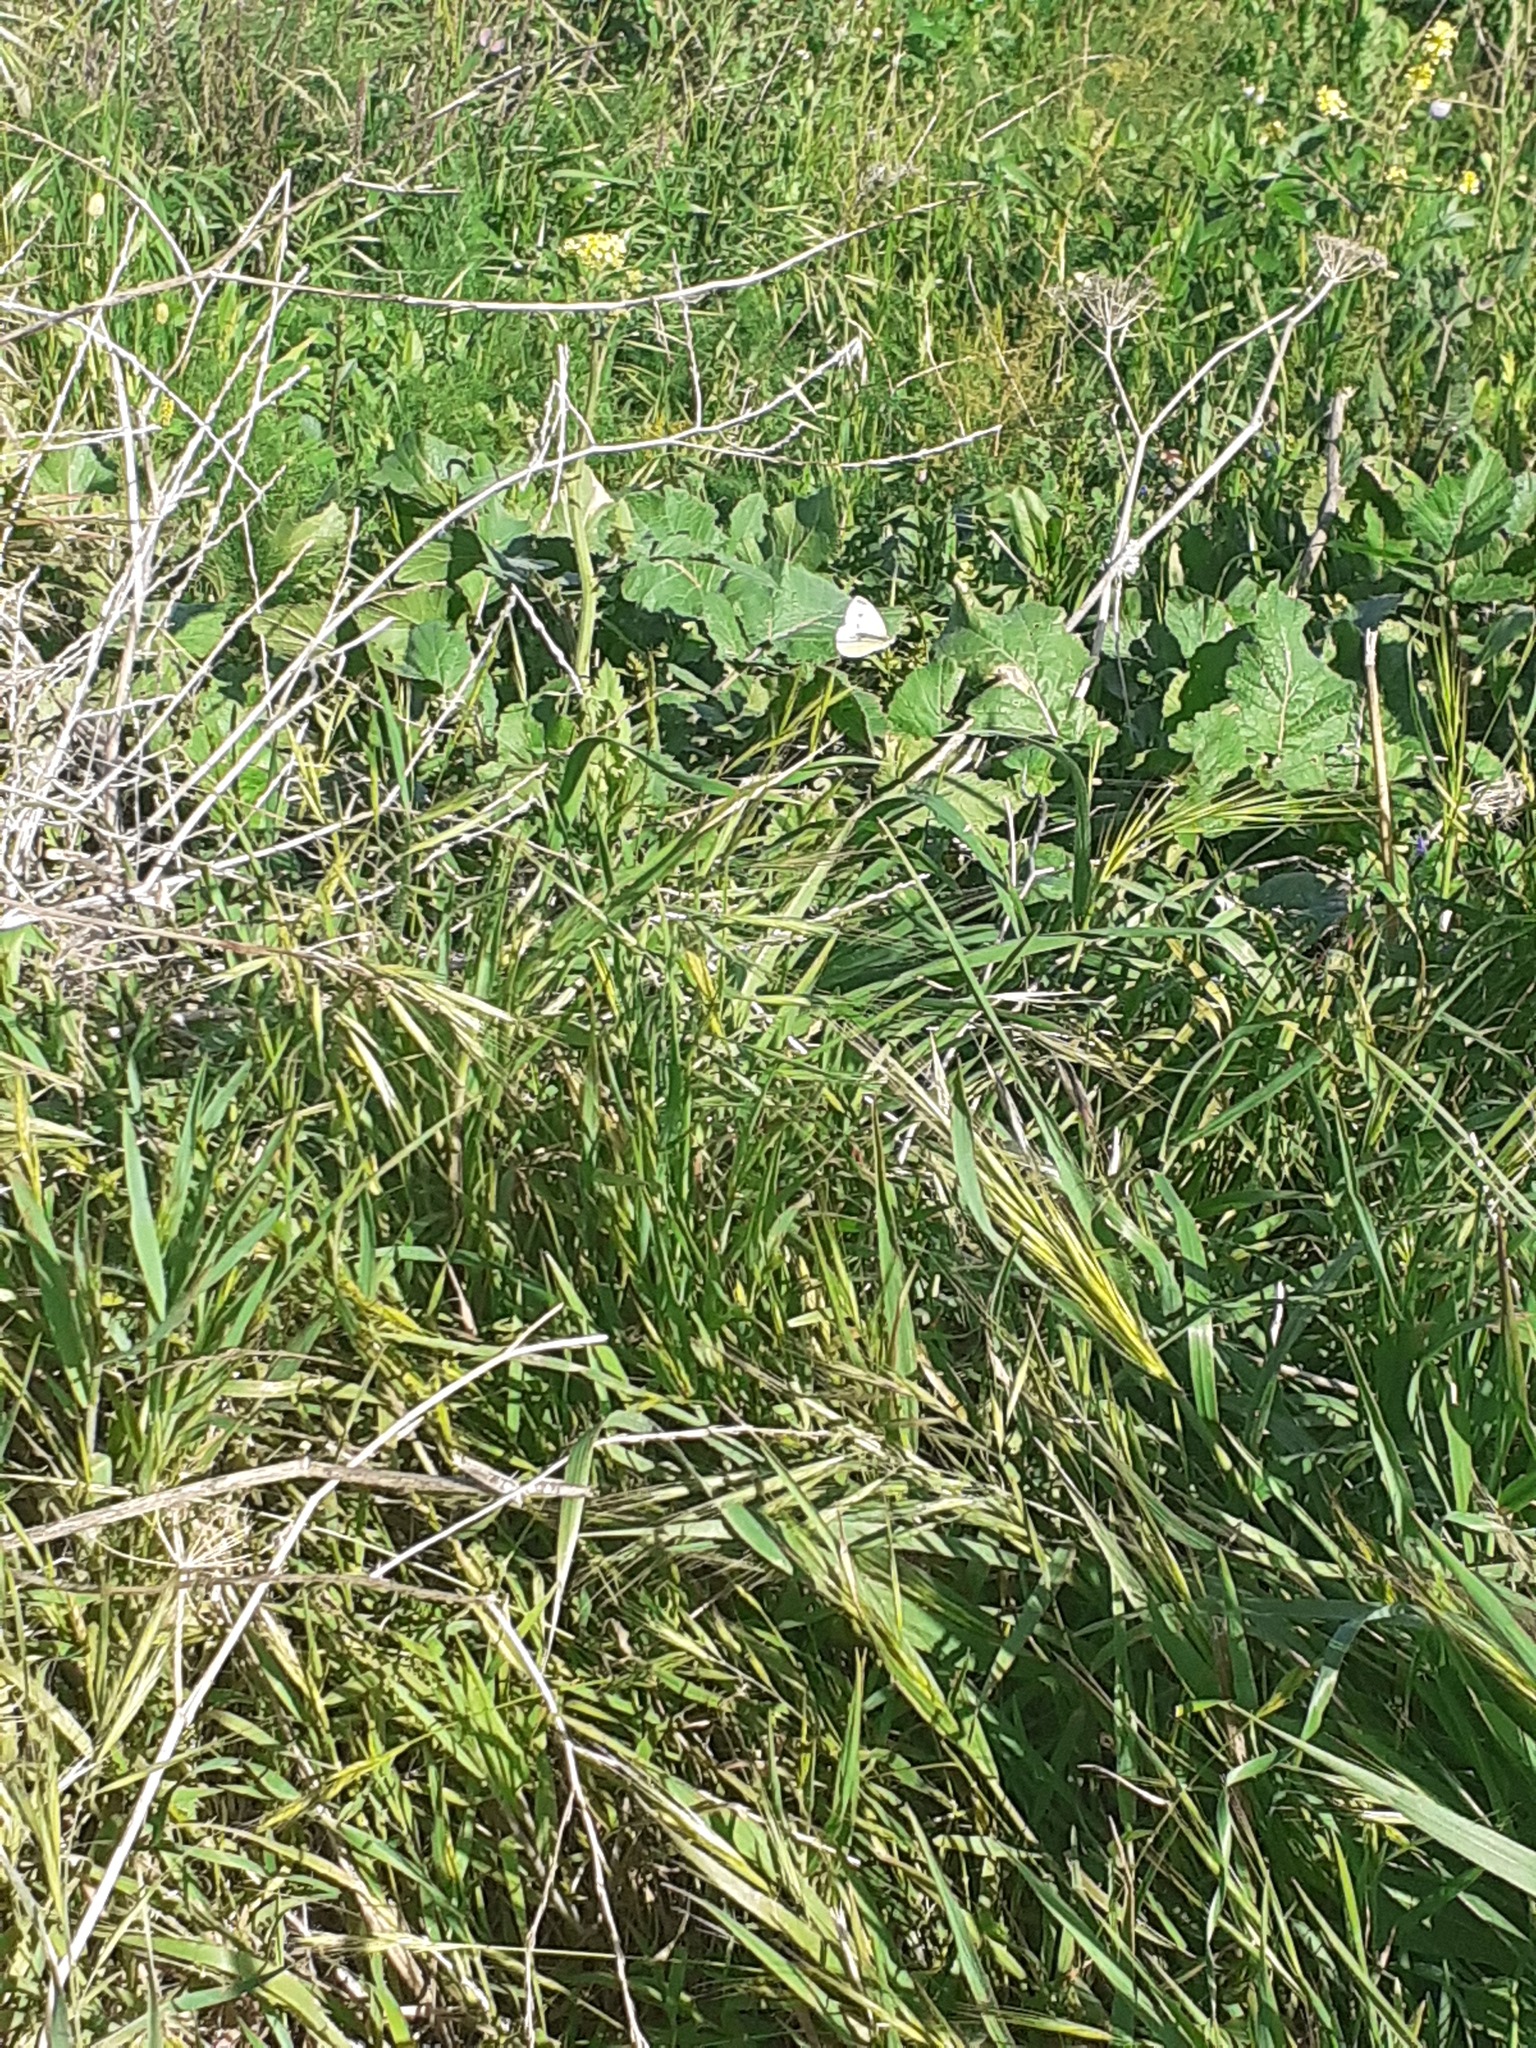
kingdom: Animalia
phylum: Arthropoda
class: Insecta
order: Lepidoptera
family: Pieridae
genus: Pieris
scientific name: Pieris rapae
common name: Small white
